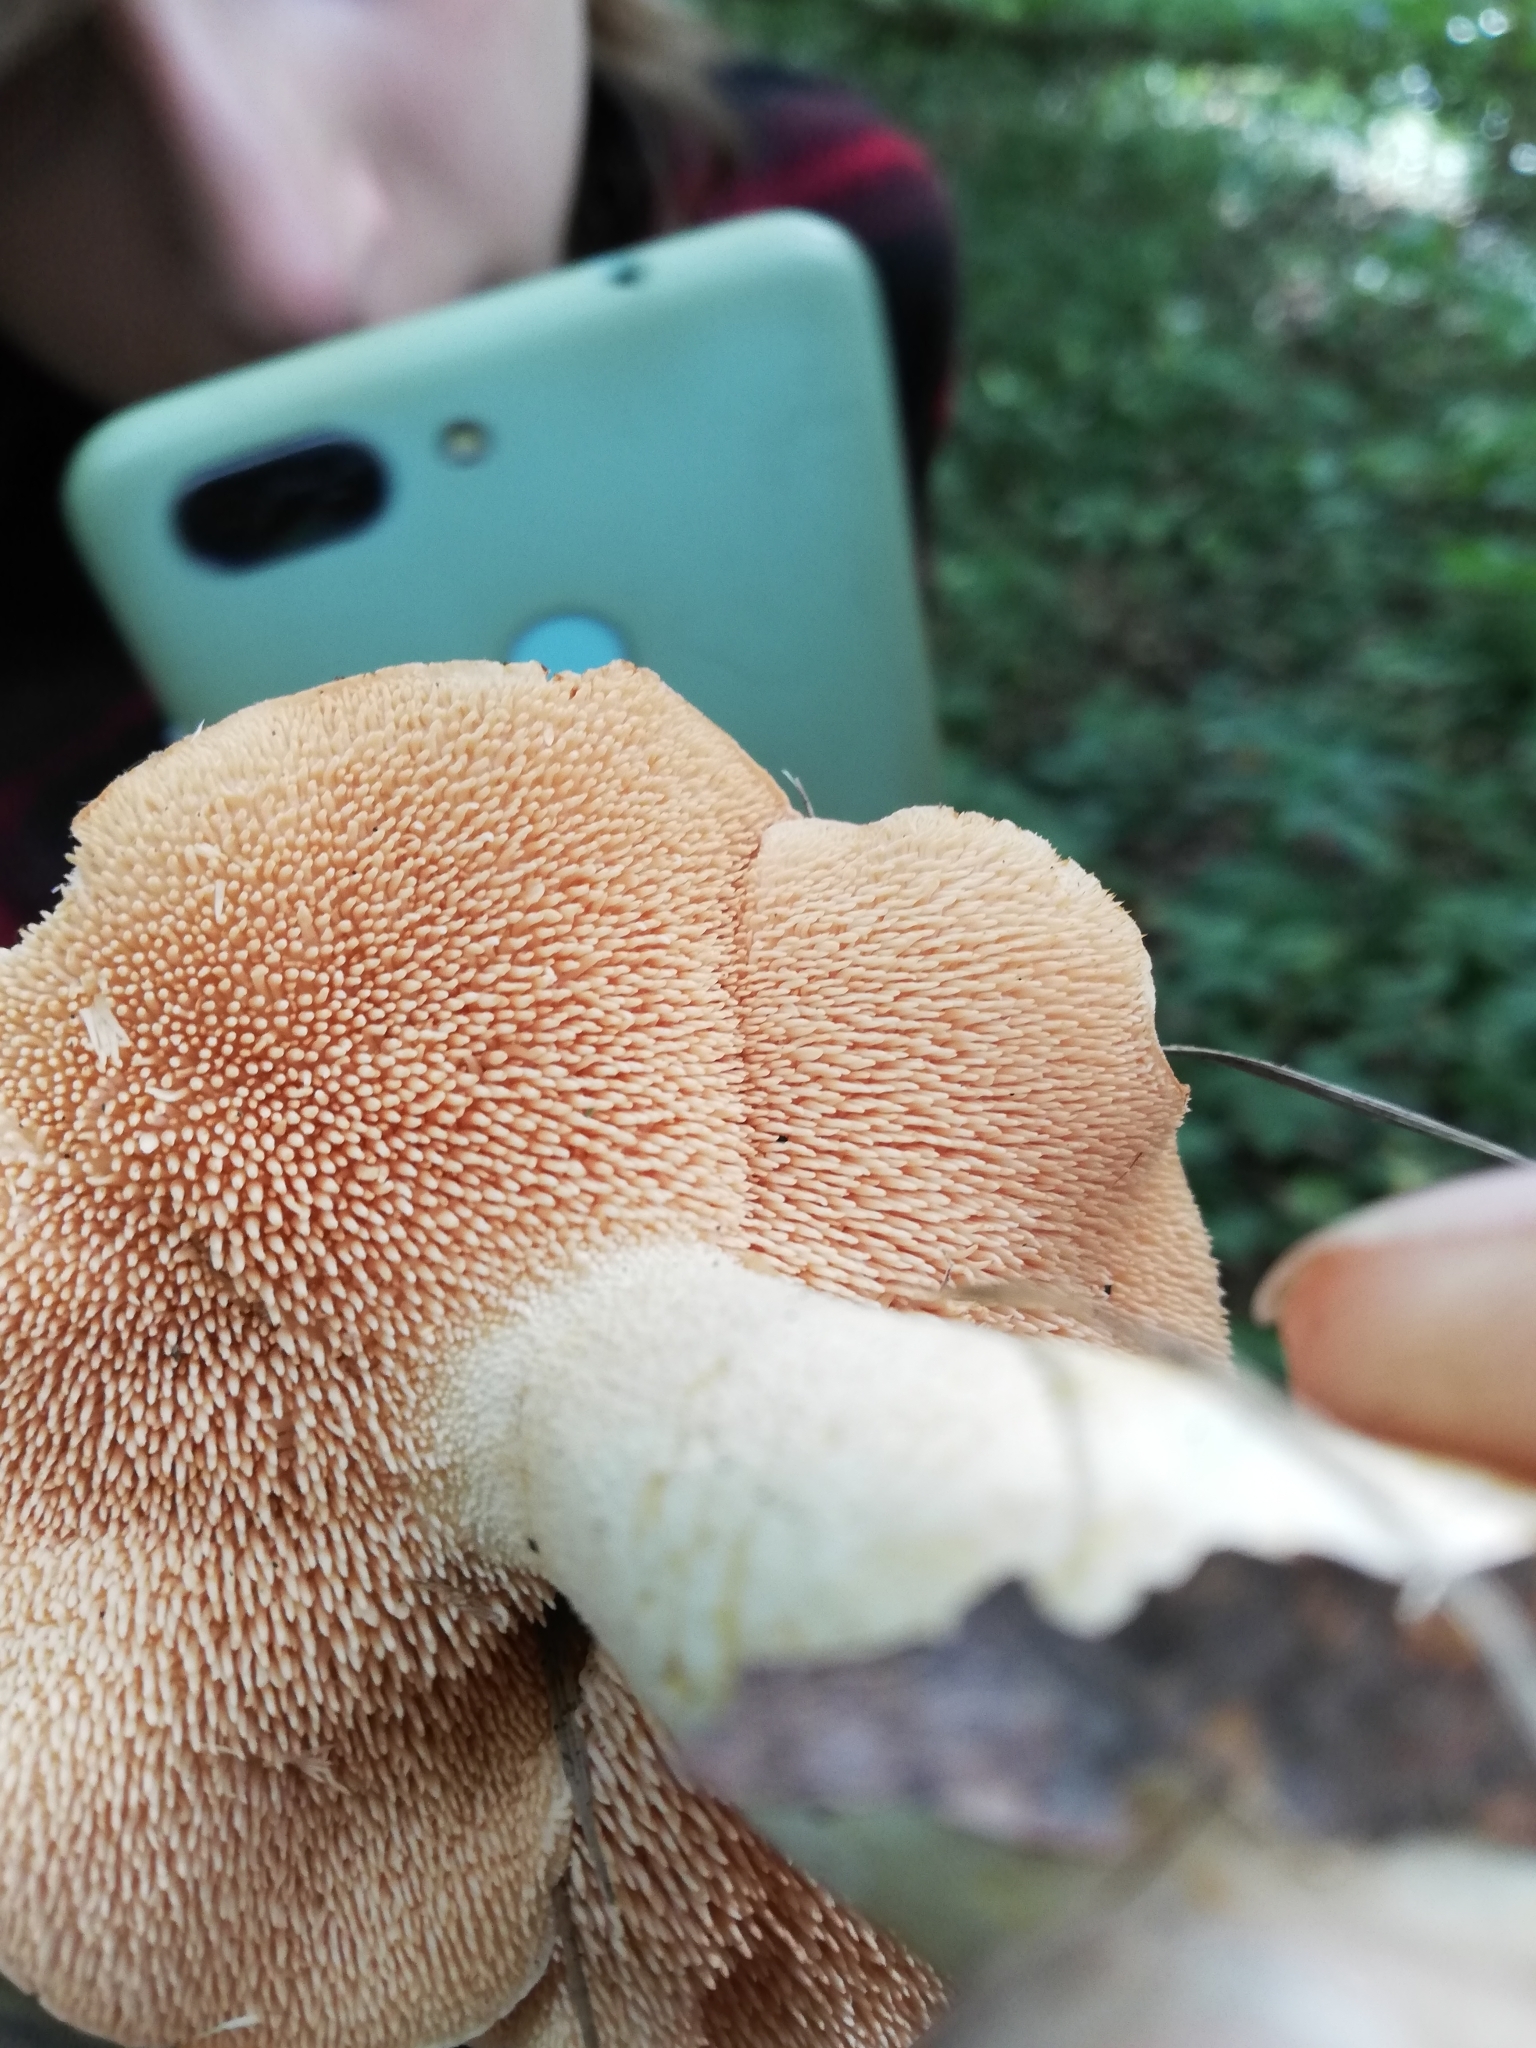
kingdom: Fungi
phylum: Basidiomycota
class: Agaricomycetes
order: Cantharellales
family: Hydnaceae
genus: Hydnum
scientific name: Hydnum repandum
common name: Wood hedgehog
